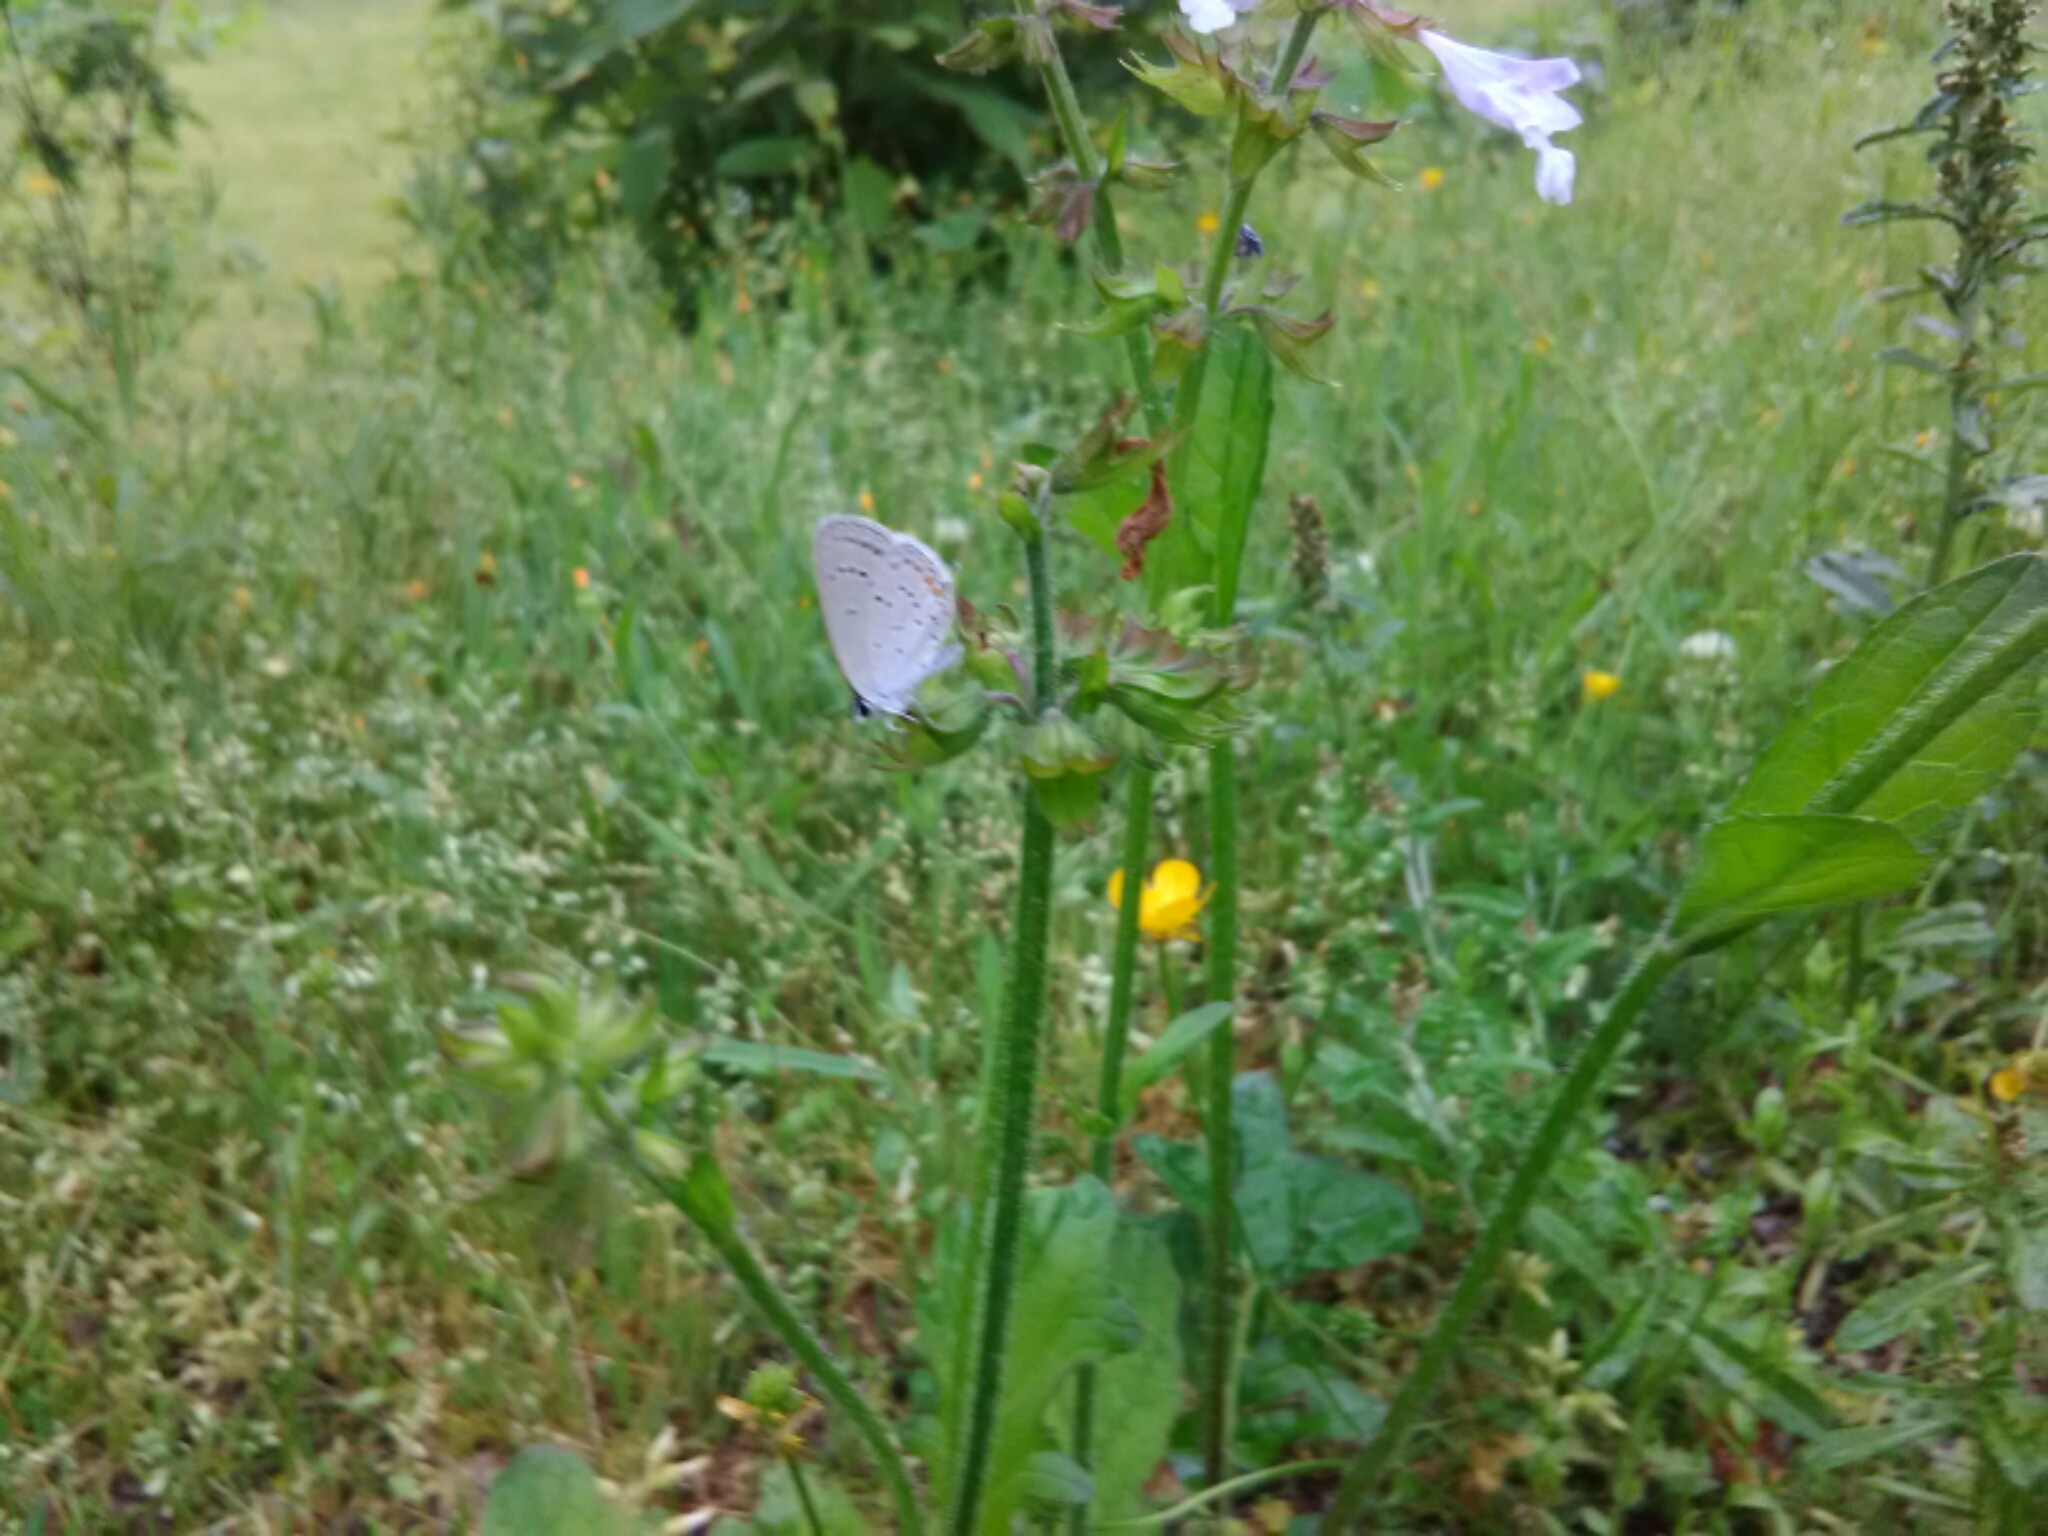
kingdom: Animalia
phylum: Arthropoda
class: Insecta
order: Lepidoptera
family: Lycaenidae
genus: Elkalyce
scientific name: Elkalyce comyntas
